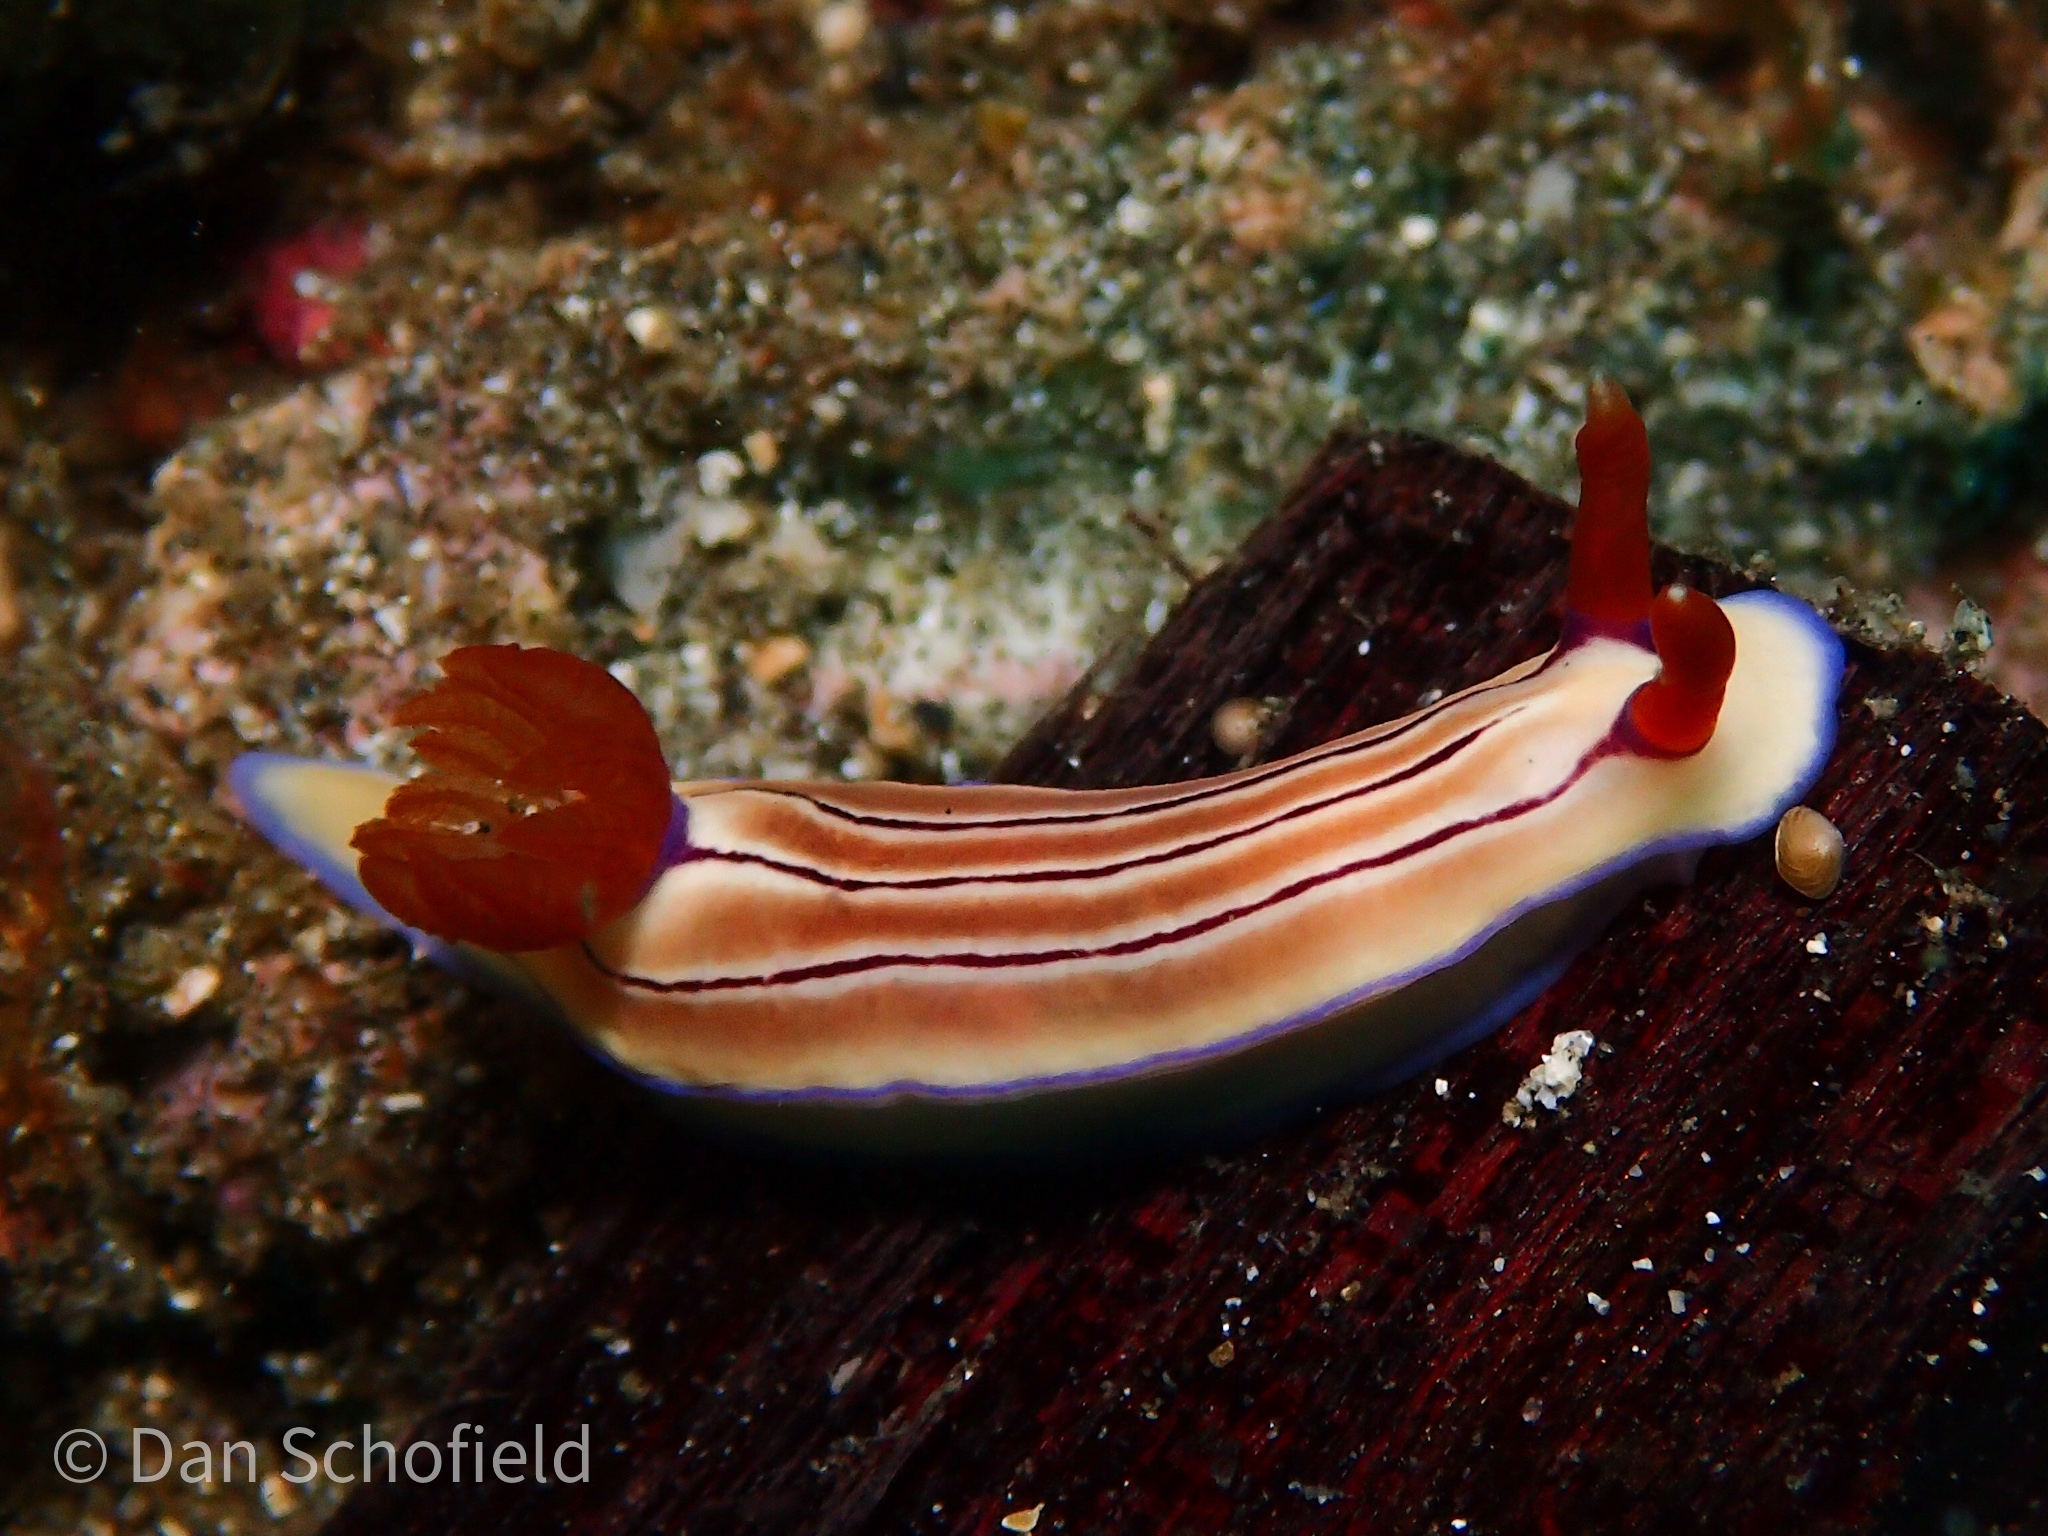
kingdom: Animalia
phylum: Mollusca
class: Gastropoda
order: Nudibranchia
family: Chromodorididae
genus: Hypselodoris
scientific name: Hypselodoris emma
